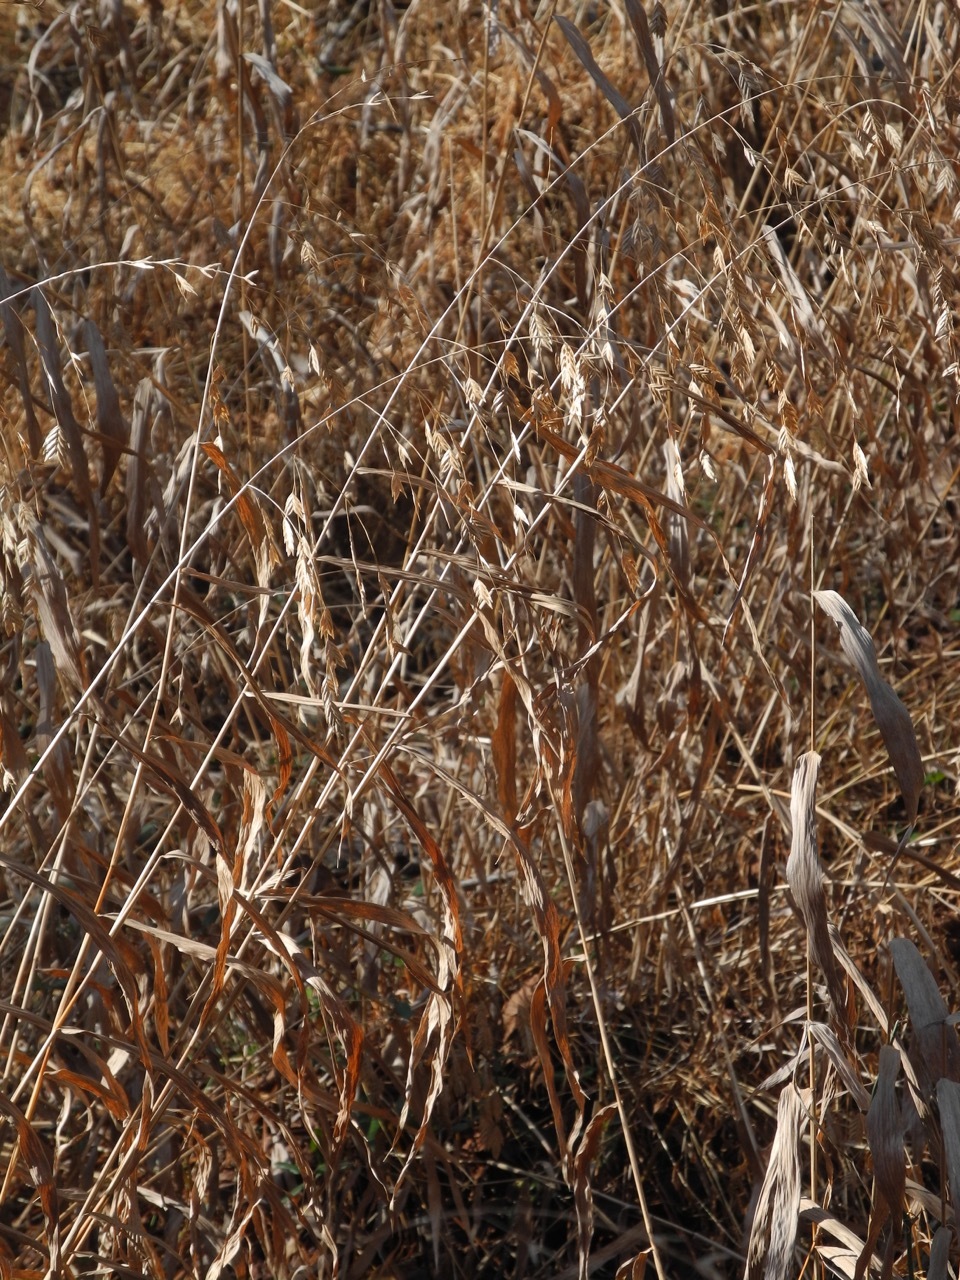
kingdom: Plantae
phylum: Tracheophyta
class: Liliopsida
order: Poales
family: Poaceae
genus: Chasmanthium
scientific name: Chasmanthium latifolium
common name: Broad-leaved chasmanthium
